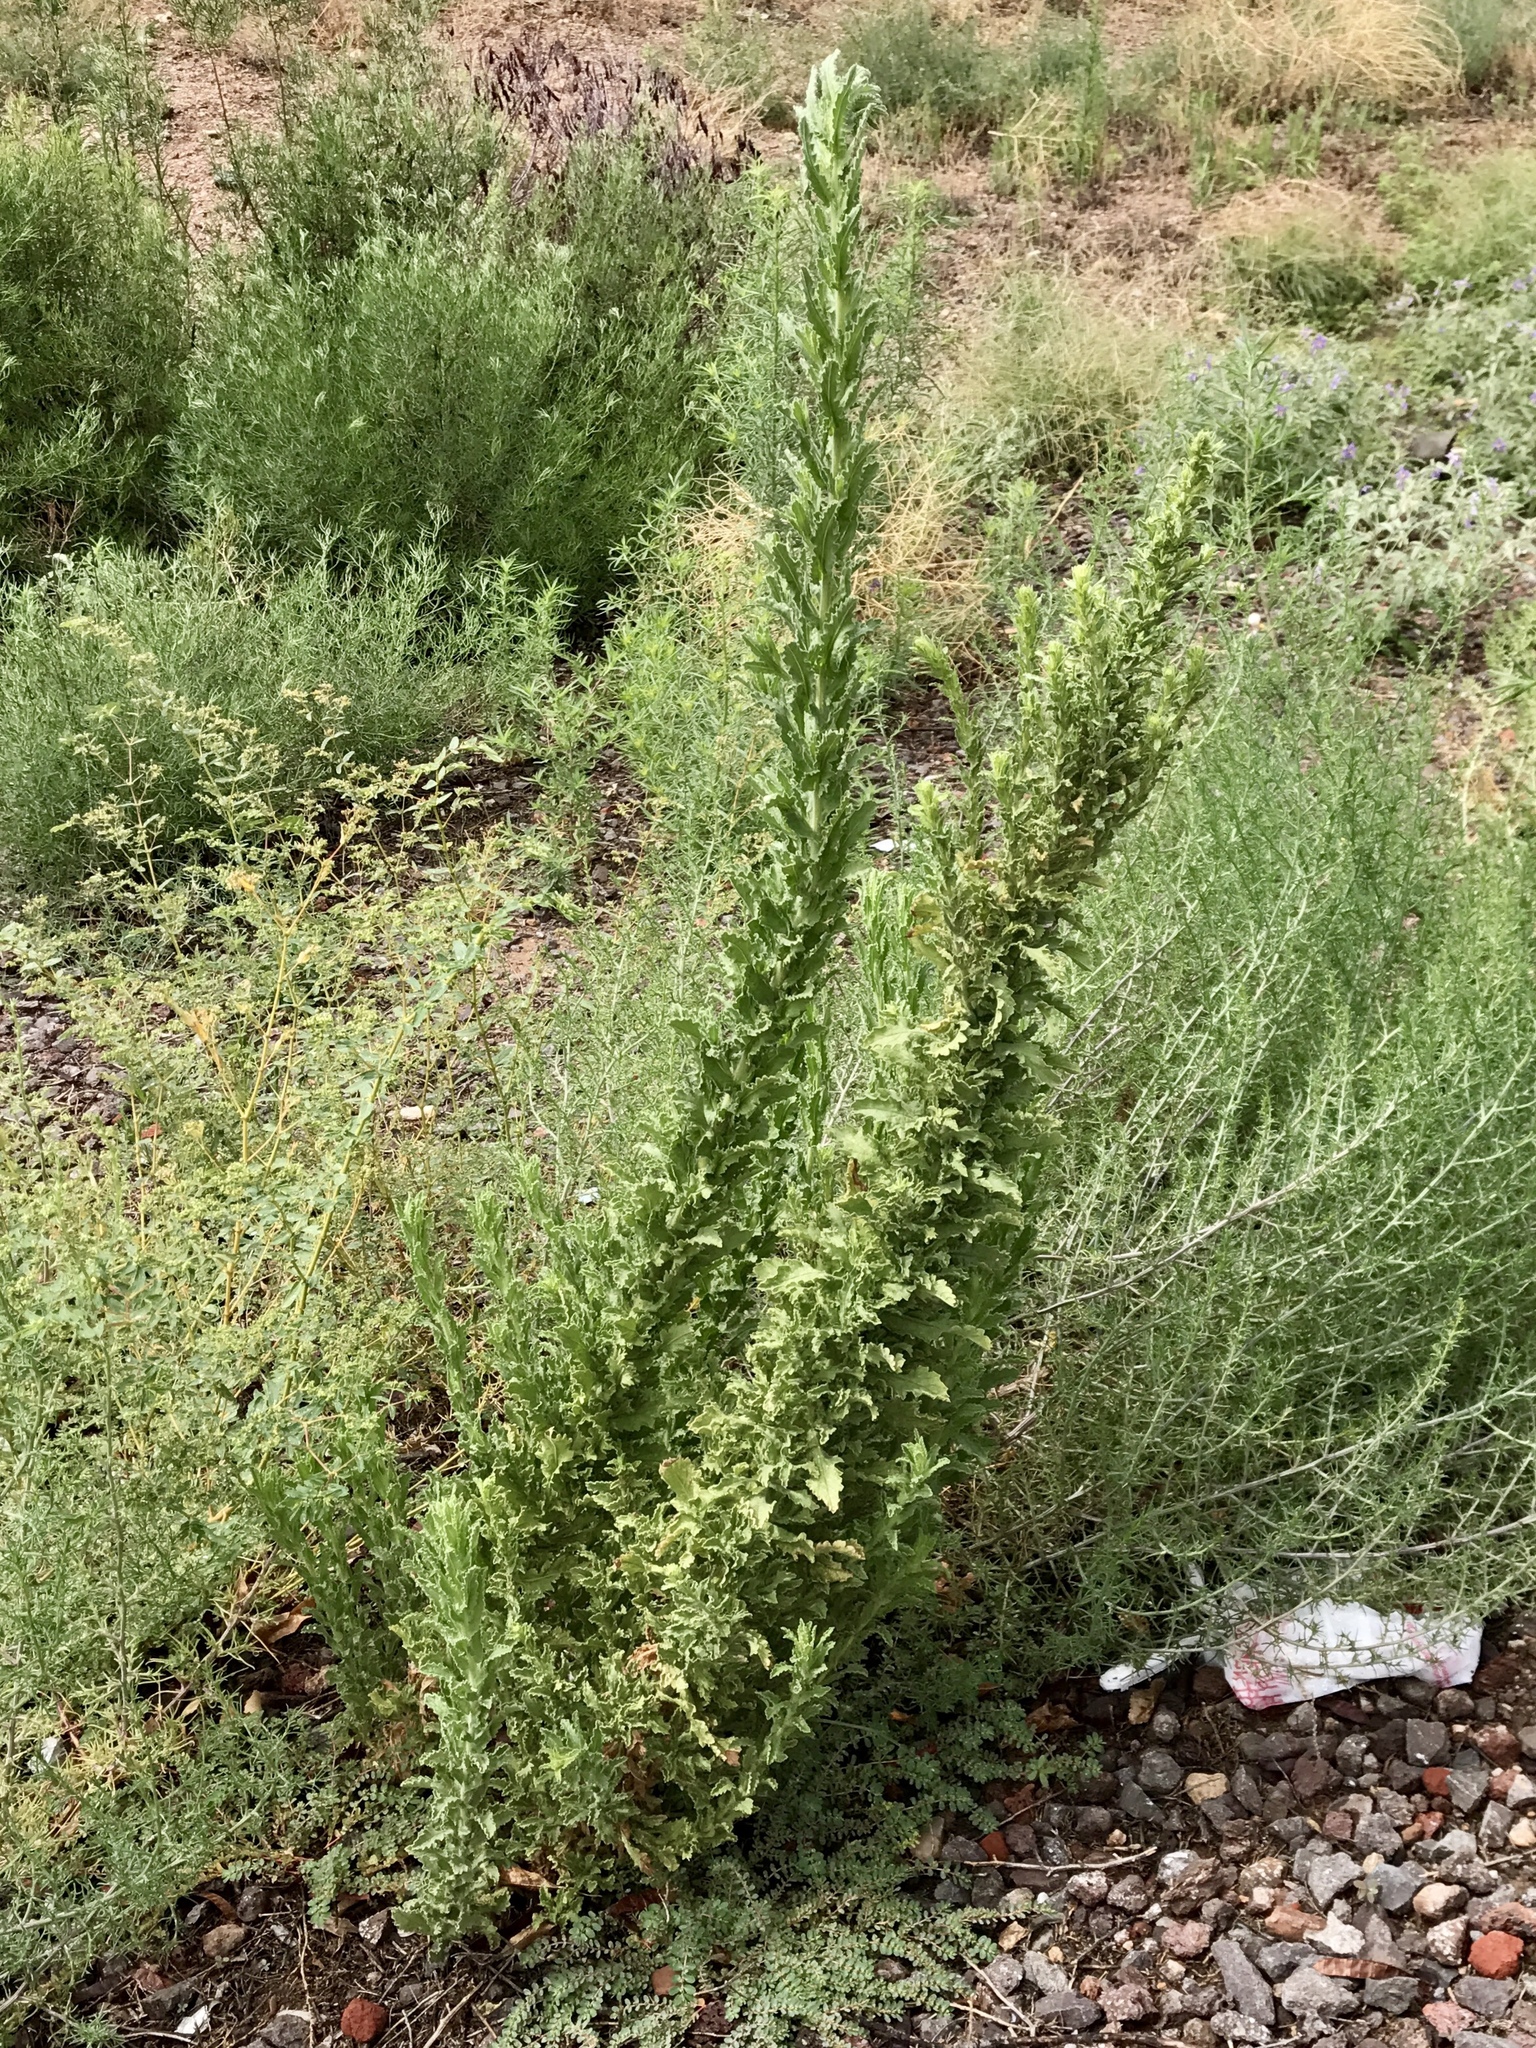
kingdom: Plantae
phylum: Tracheophyta
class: Magnoliopsida
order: Asterales
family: Asteraceae
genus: Laennecia
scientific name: Laennecia coulteri
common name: Coulter's woolwort
